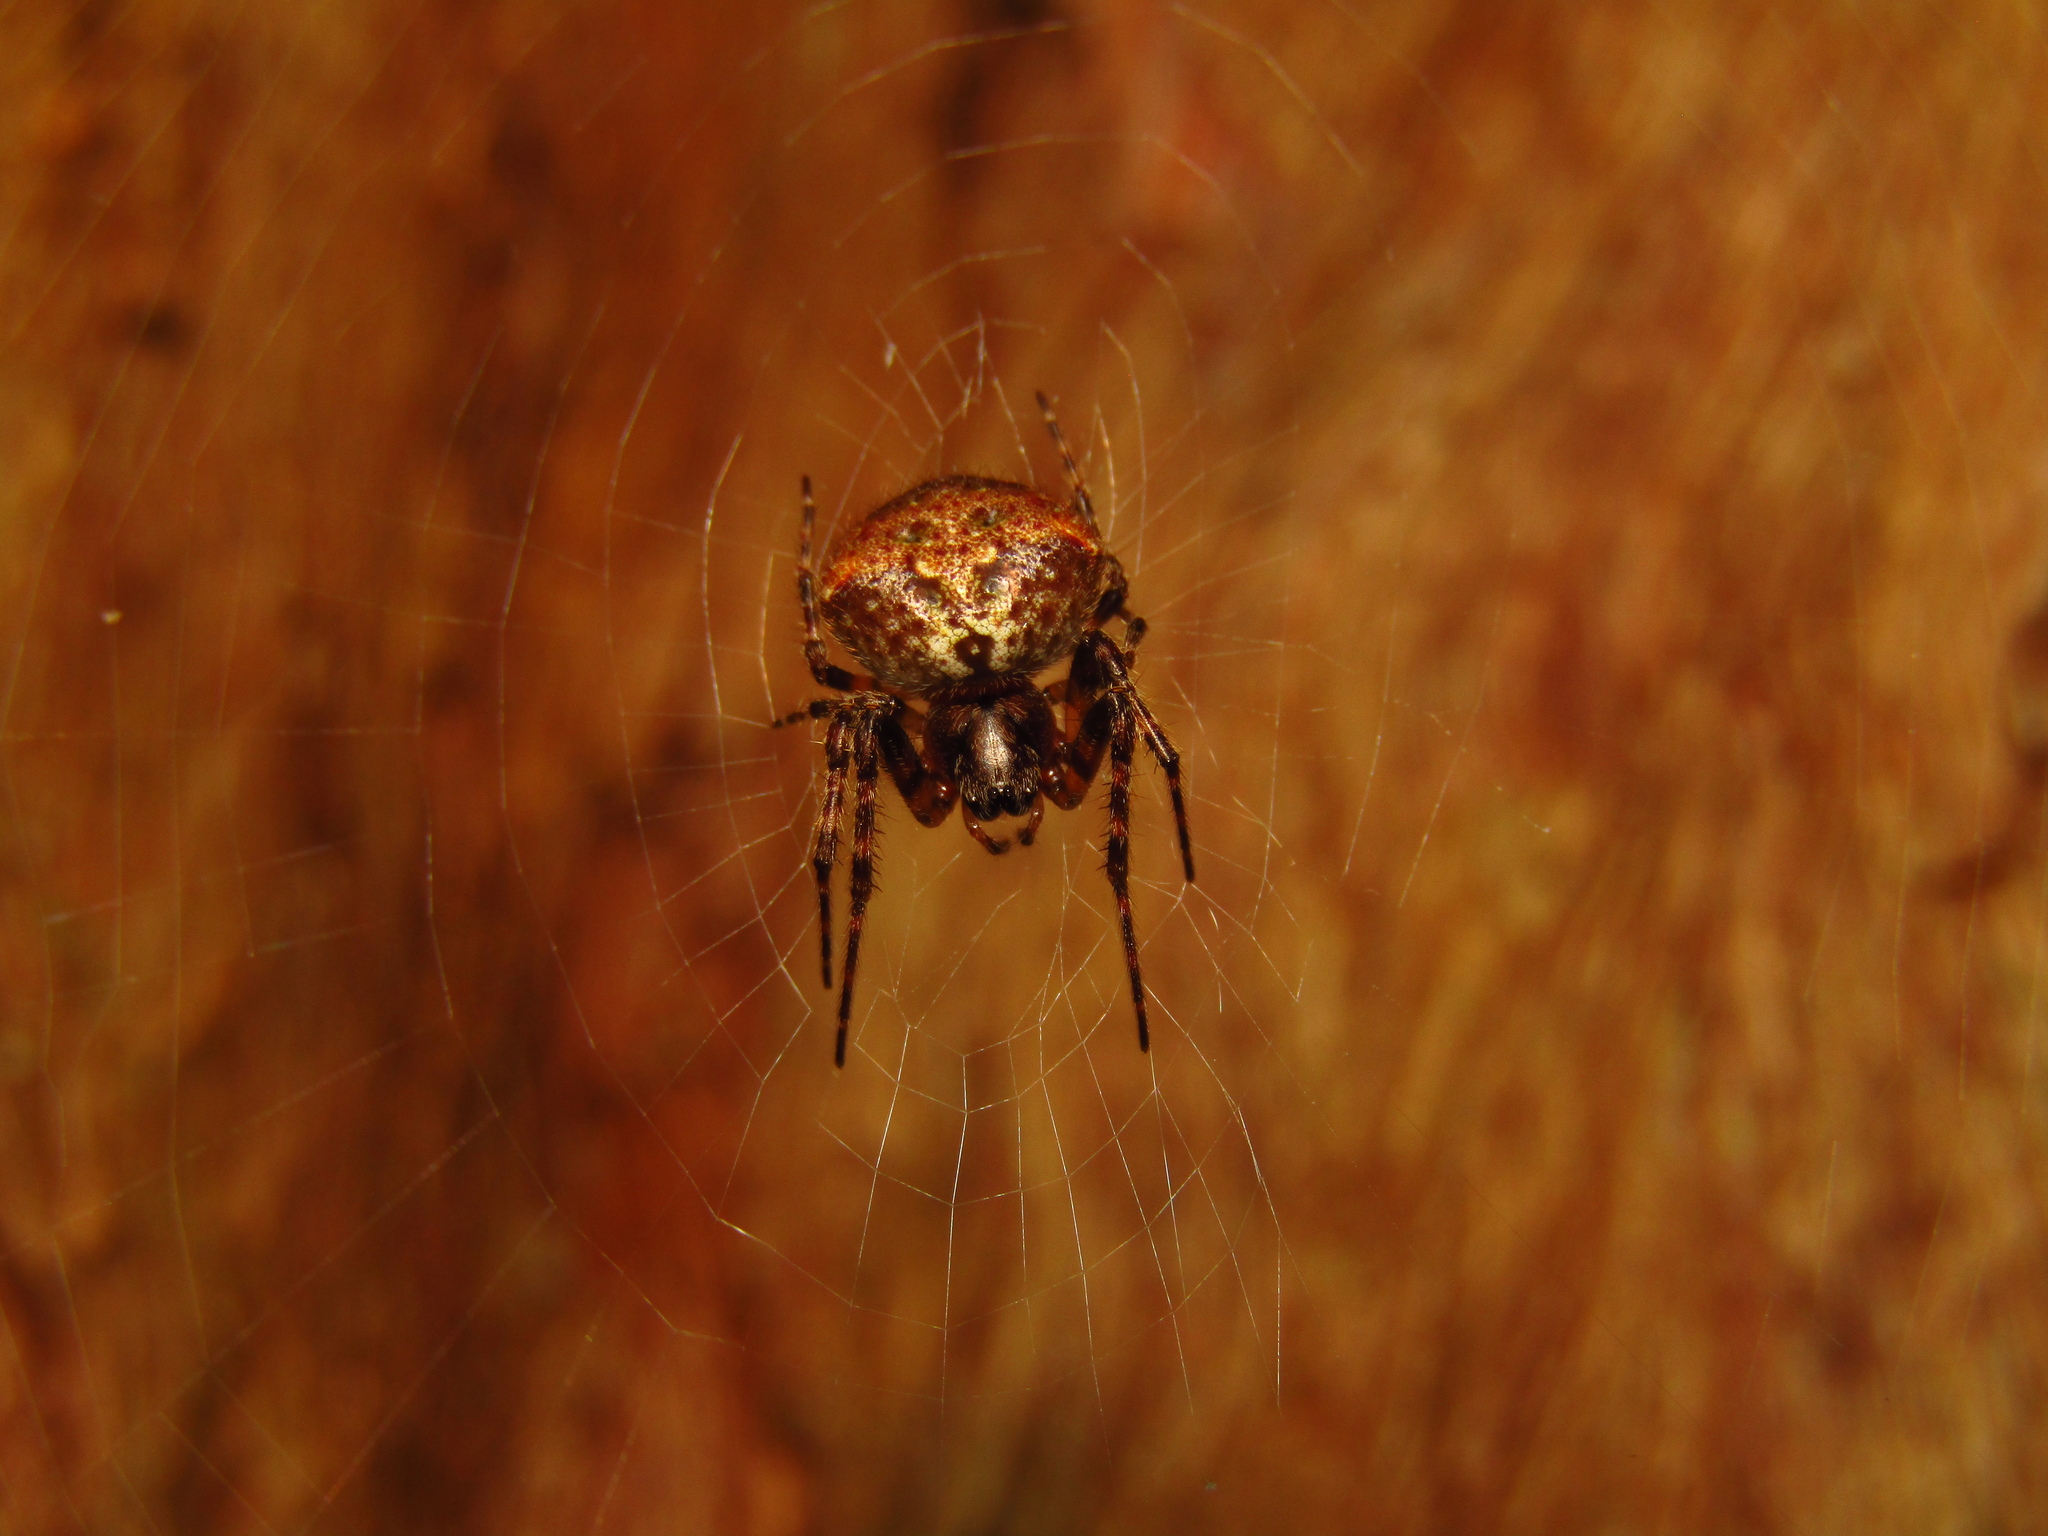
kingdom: Animalia
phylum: Arthropoda
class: Arachnida
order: Araneae
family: Araneidae
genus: Telaprocera
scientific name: Telaprocera maudae
